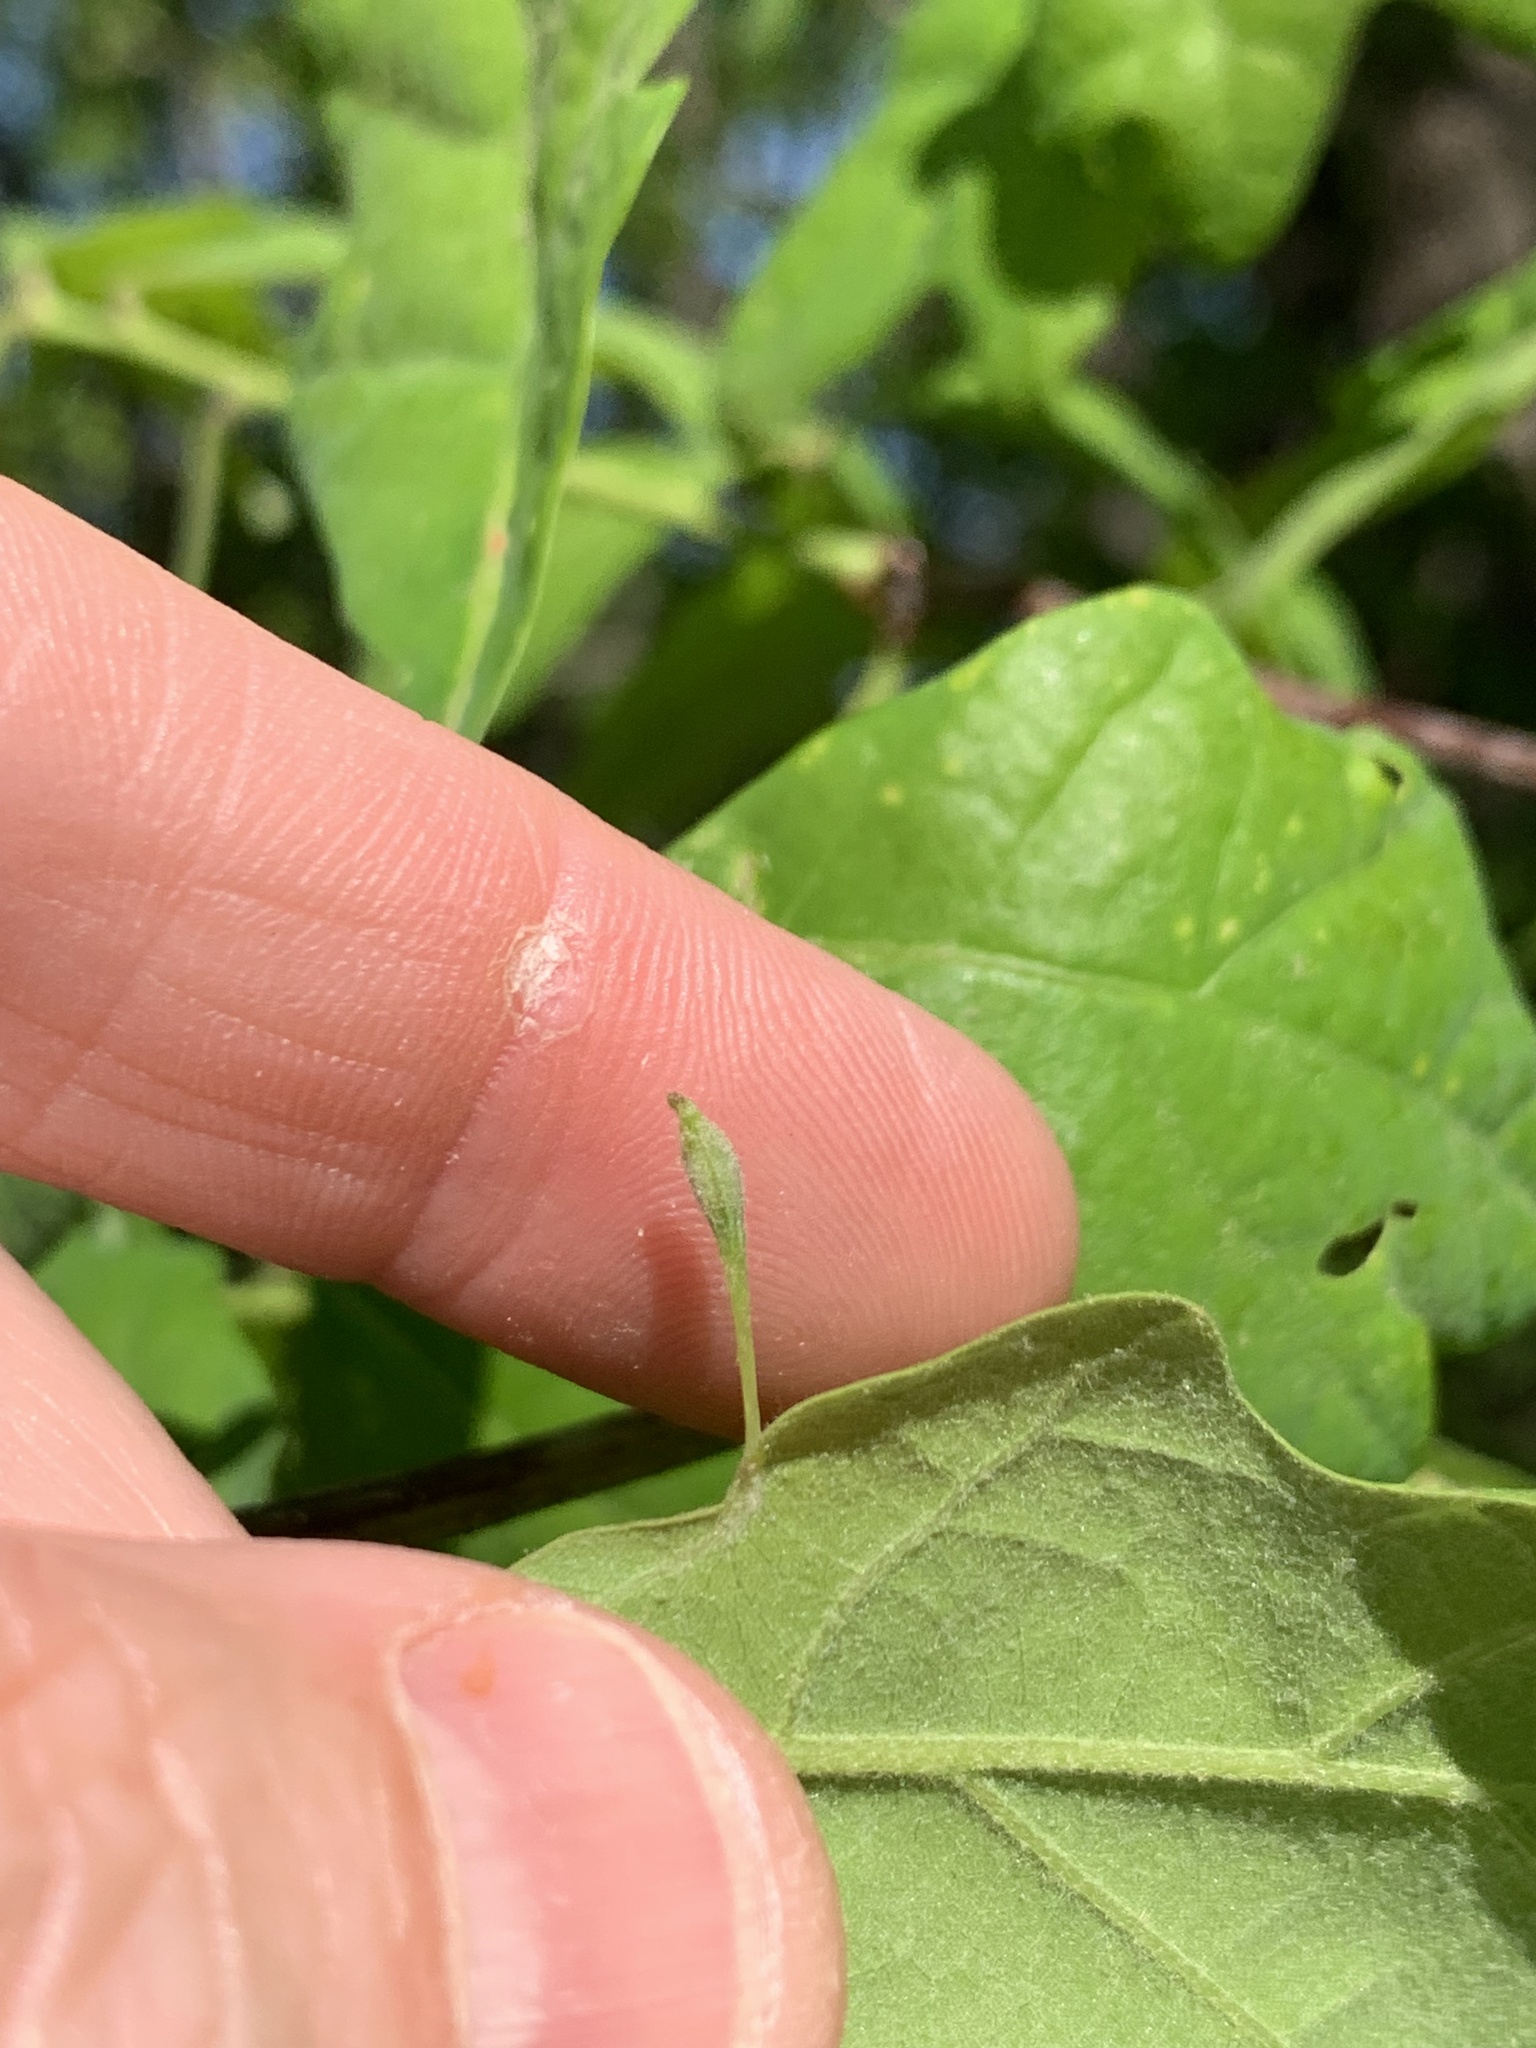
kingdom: Animalia
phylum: Arthropoda
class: Insecta
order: Hymenoptera
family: Cynipidae
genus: Andricus
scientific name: Andricus
